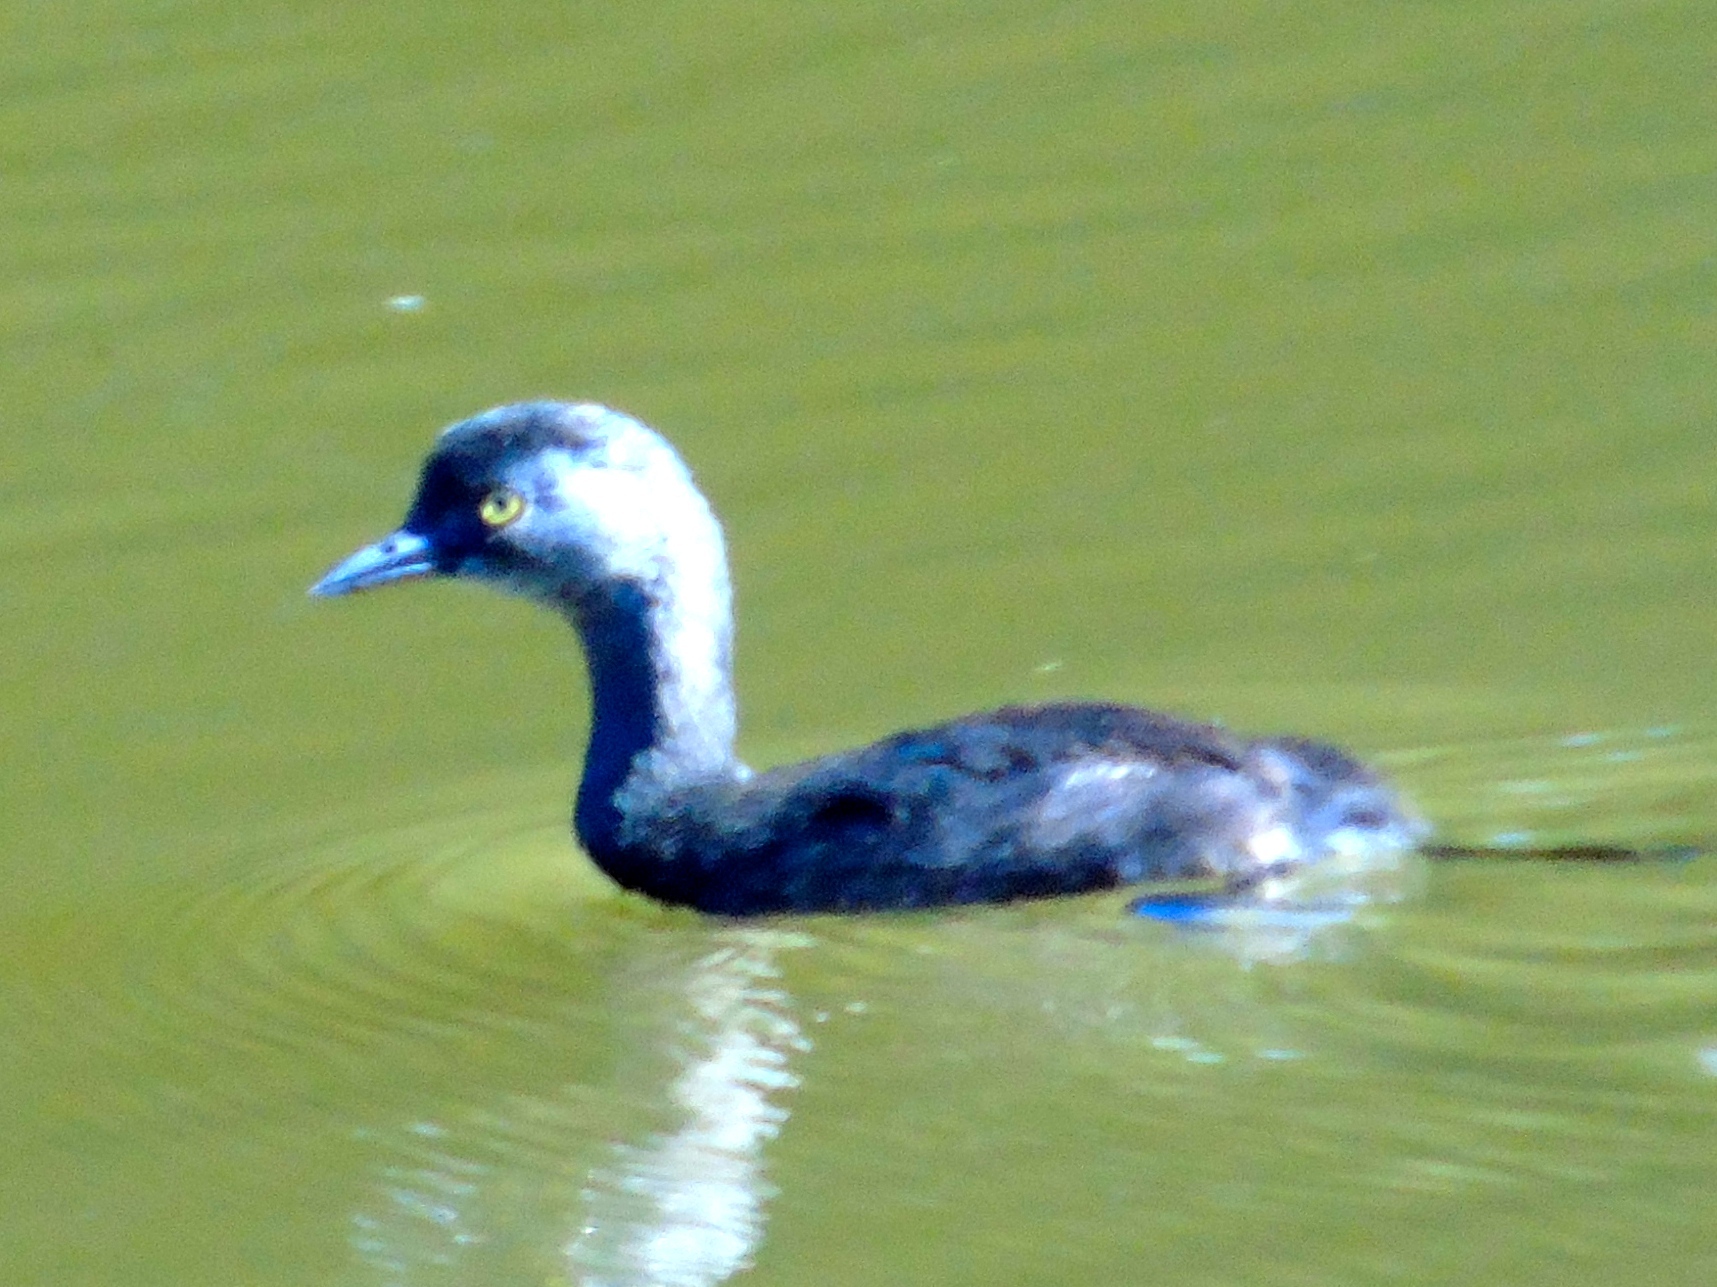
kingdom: Animalia
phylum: Chordata
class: Aves
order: Podicipediformes
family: Podicipedidae
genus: Tachybaptus
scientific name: Tachybaptus dominicus
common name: Least grebe
